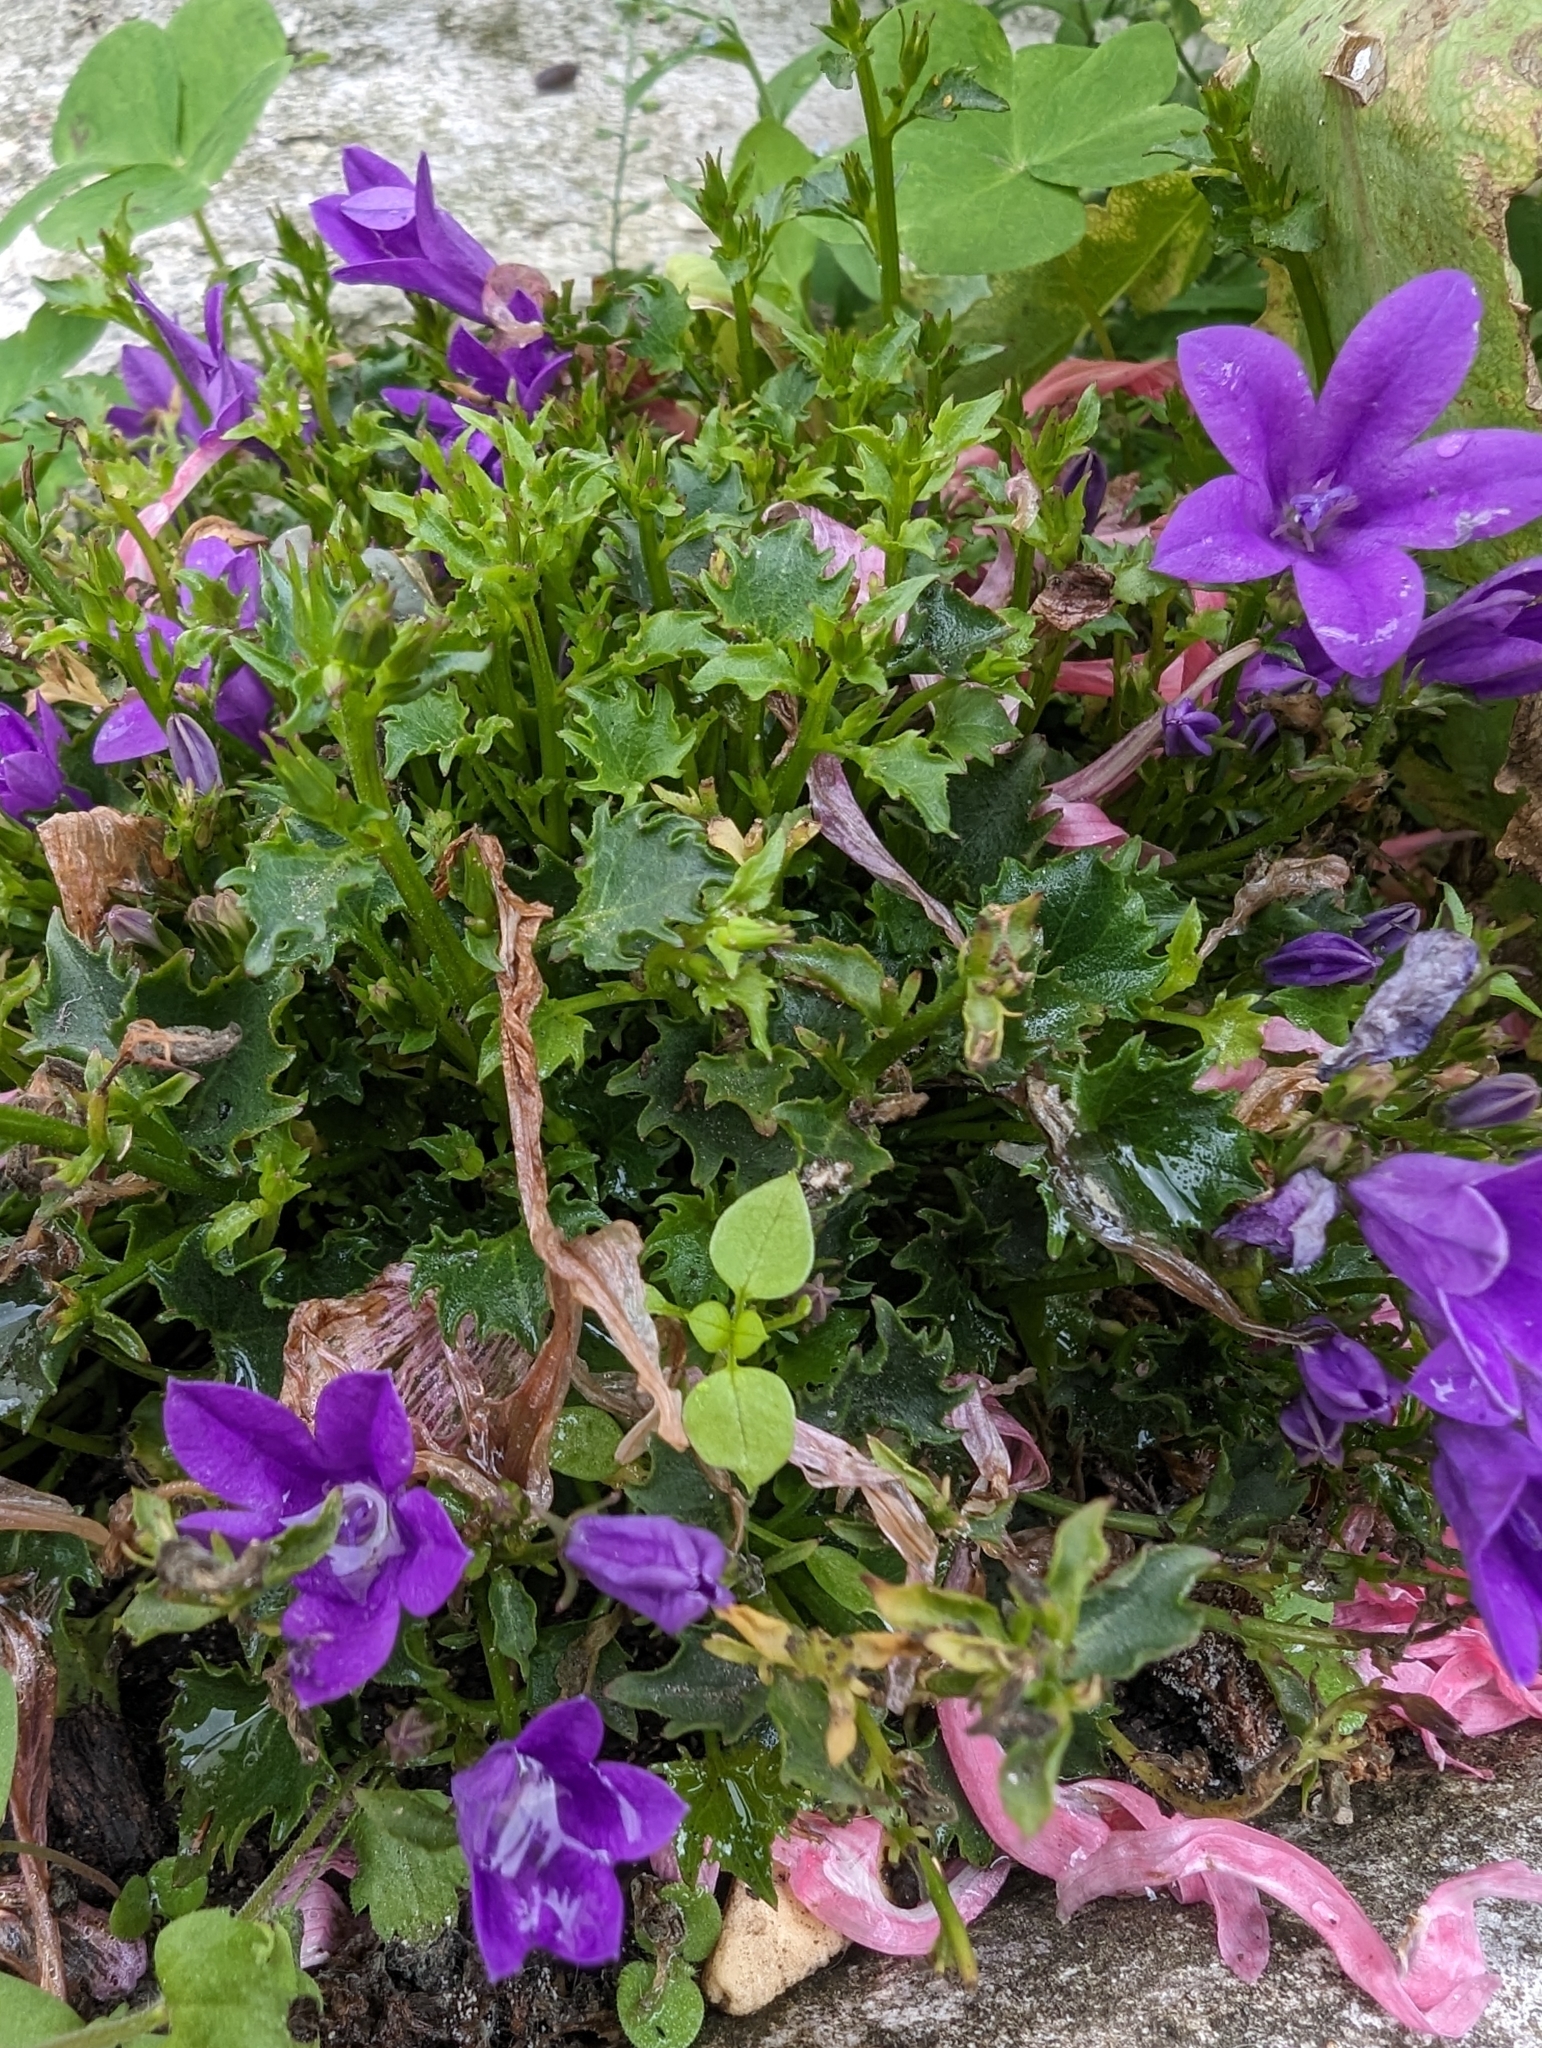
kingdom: Plantae
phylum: Tracheophyta
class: Magnoliopsida
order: Asterales
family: Campanulaceae
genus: Campanula
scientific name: Campanula portenschlagiana
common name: Adria bellflower
